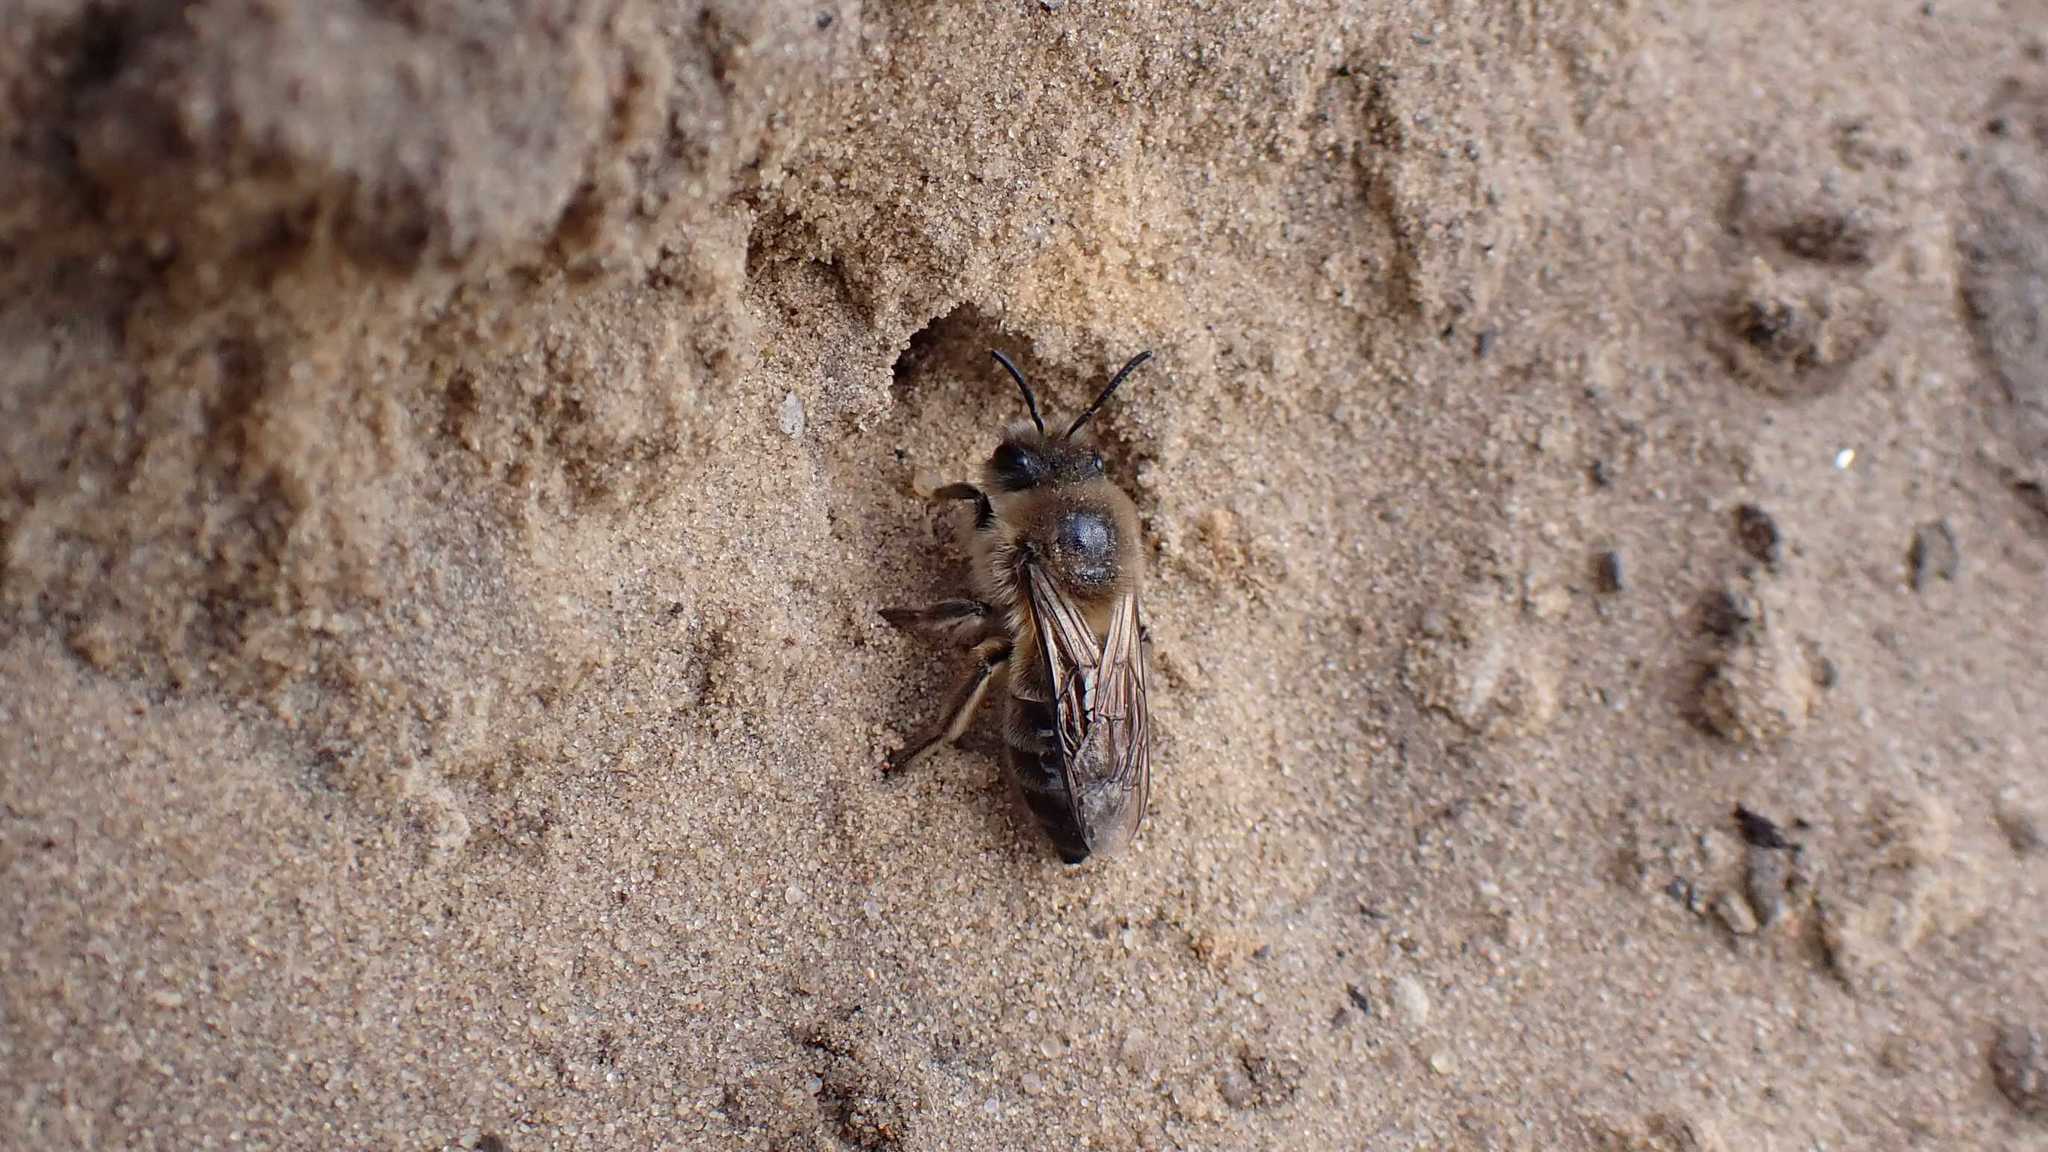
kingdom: Animalia
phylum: Arthropoda
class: Insecta
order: Hymenoptera
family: Colletidae
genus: Colletes
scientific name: Colletes cunicularius
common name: Early colletes
